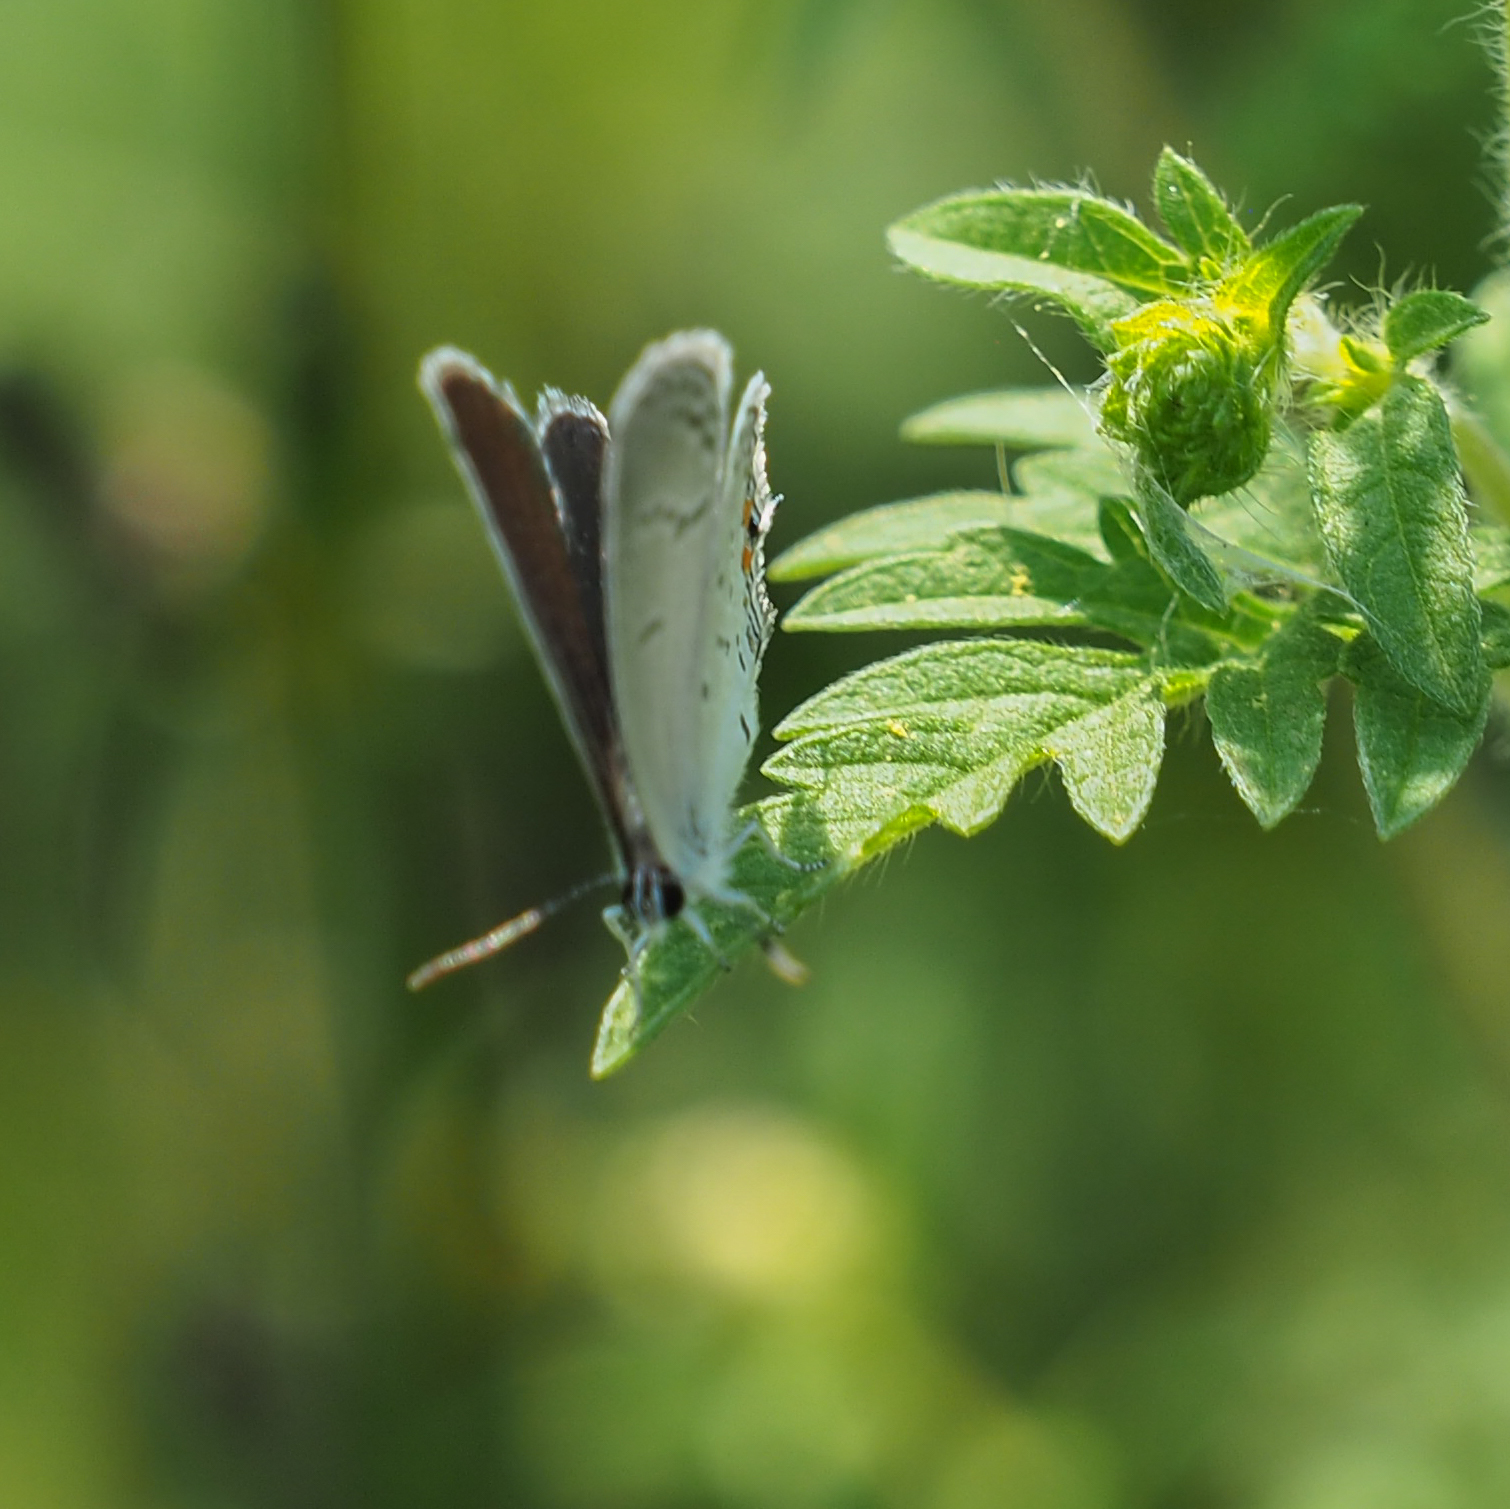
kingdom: Animalia
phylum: Arthropoda
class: Insecta
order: Lepidoptera
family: Lycaenidae
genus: Elkalyce
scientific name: Elkalyce comyntas
